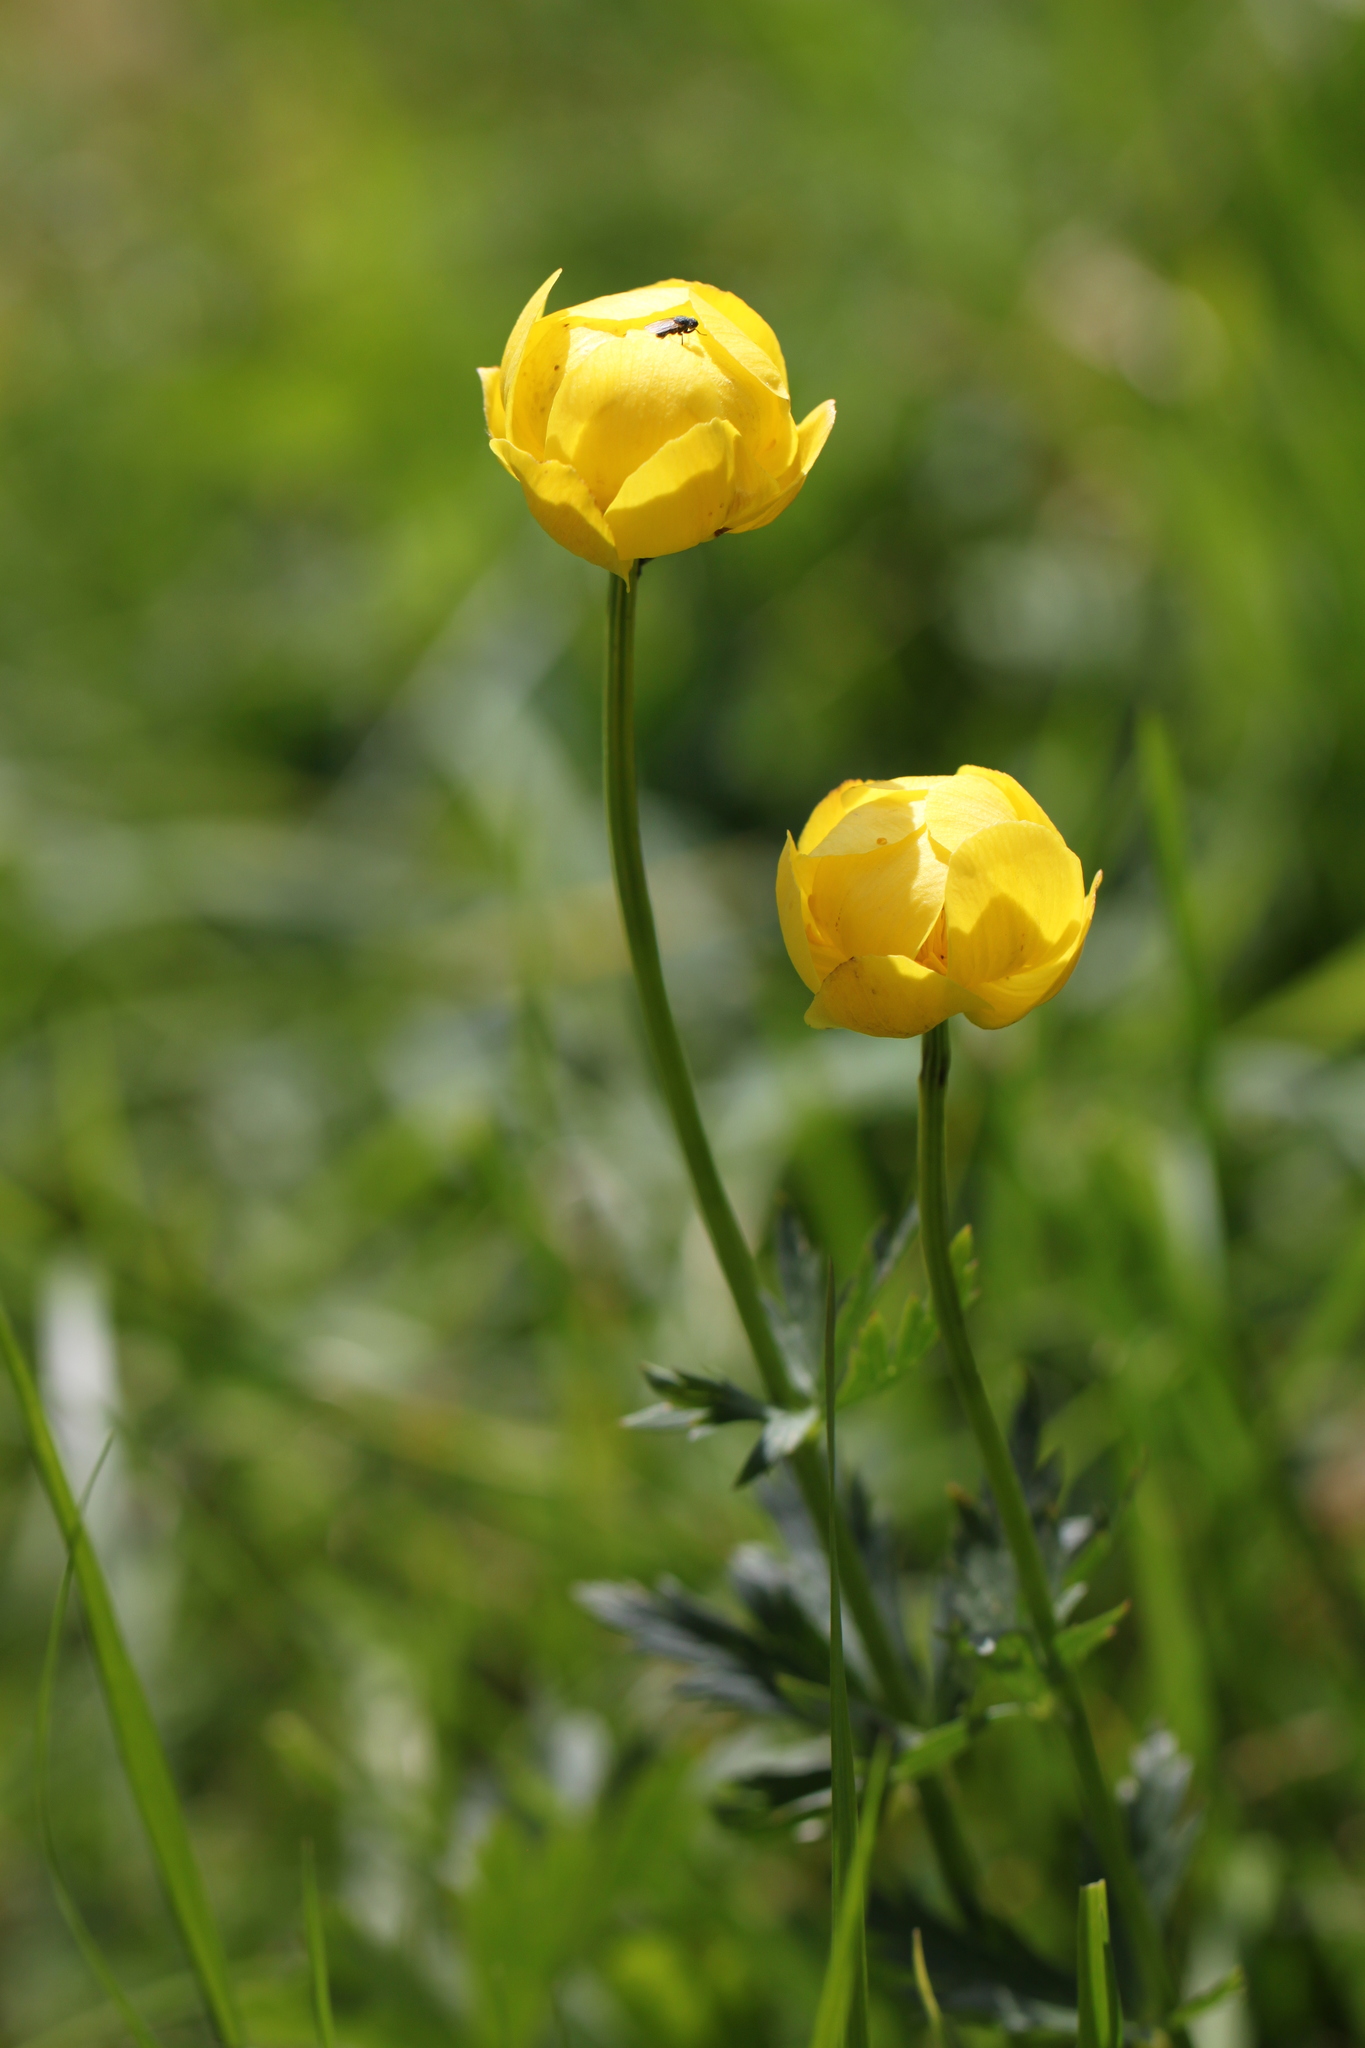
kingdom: Plantae
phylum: Tracheophyta
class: Magnoliopsida
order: Ranunculales
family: Ranunculaceae
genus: Trollius
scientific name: Trollius europaeus
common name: European globeflower
